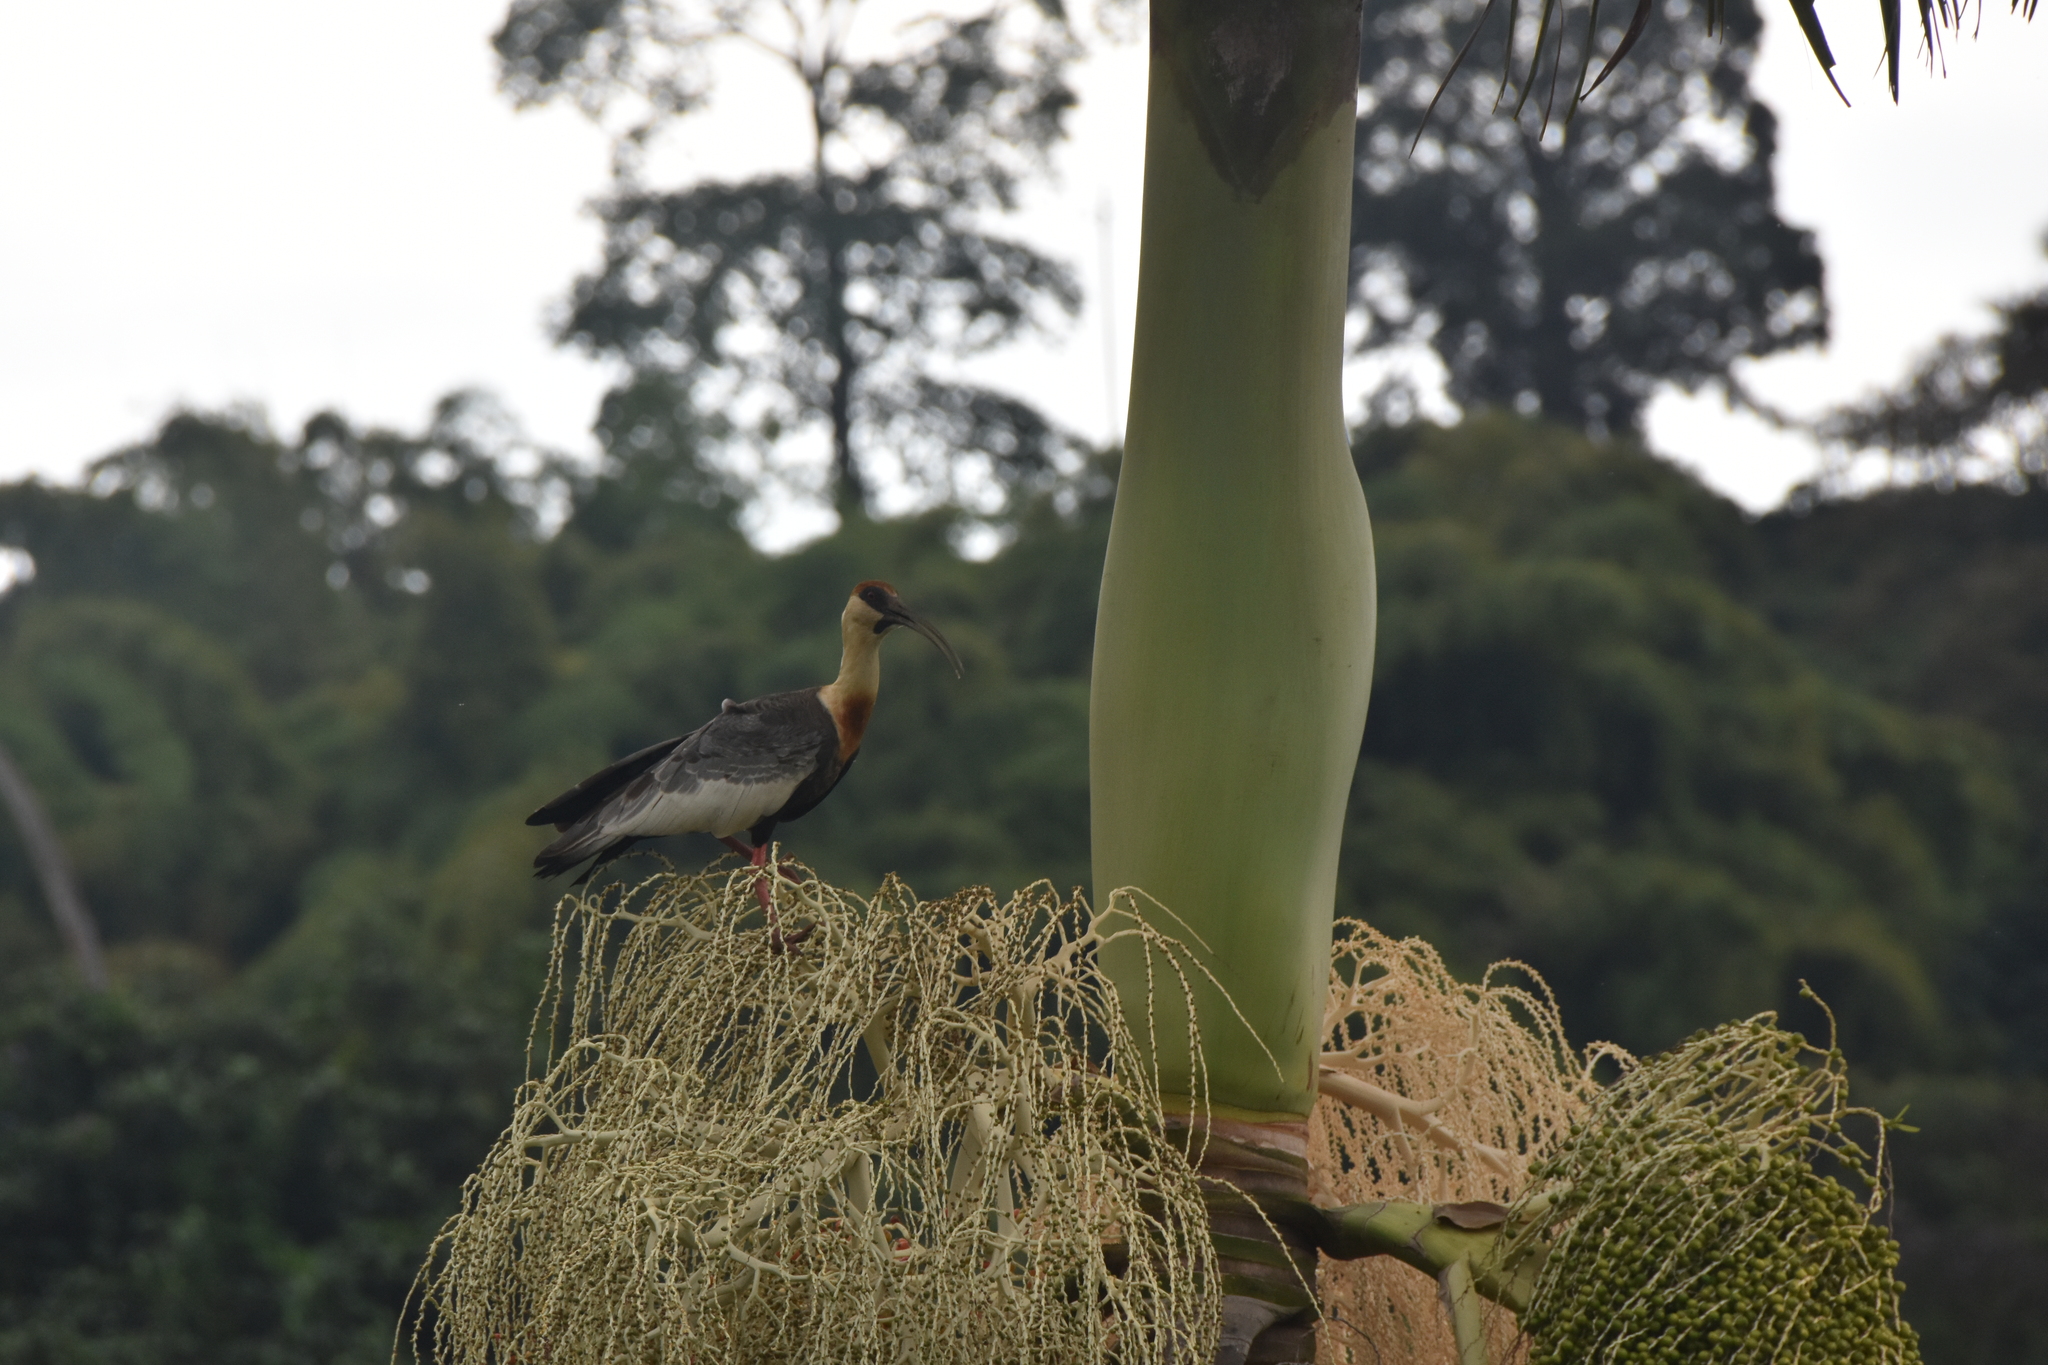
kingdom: Animalia
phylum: Chordata
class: Aves
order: Pelecaniformes
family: Threskiornithidae
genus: Theristicus
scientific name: Theristicus caudatus
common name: Buff-necked ibis
